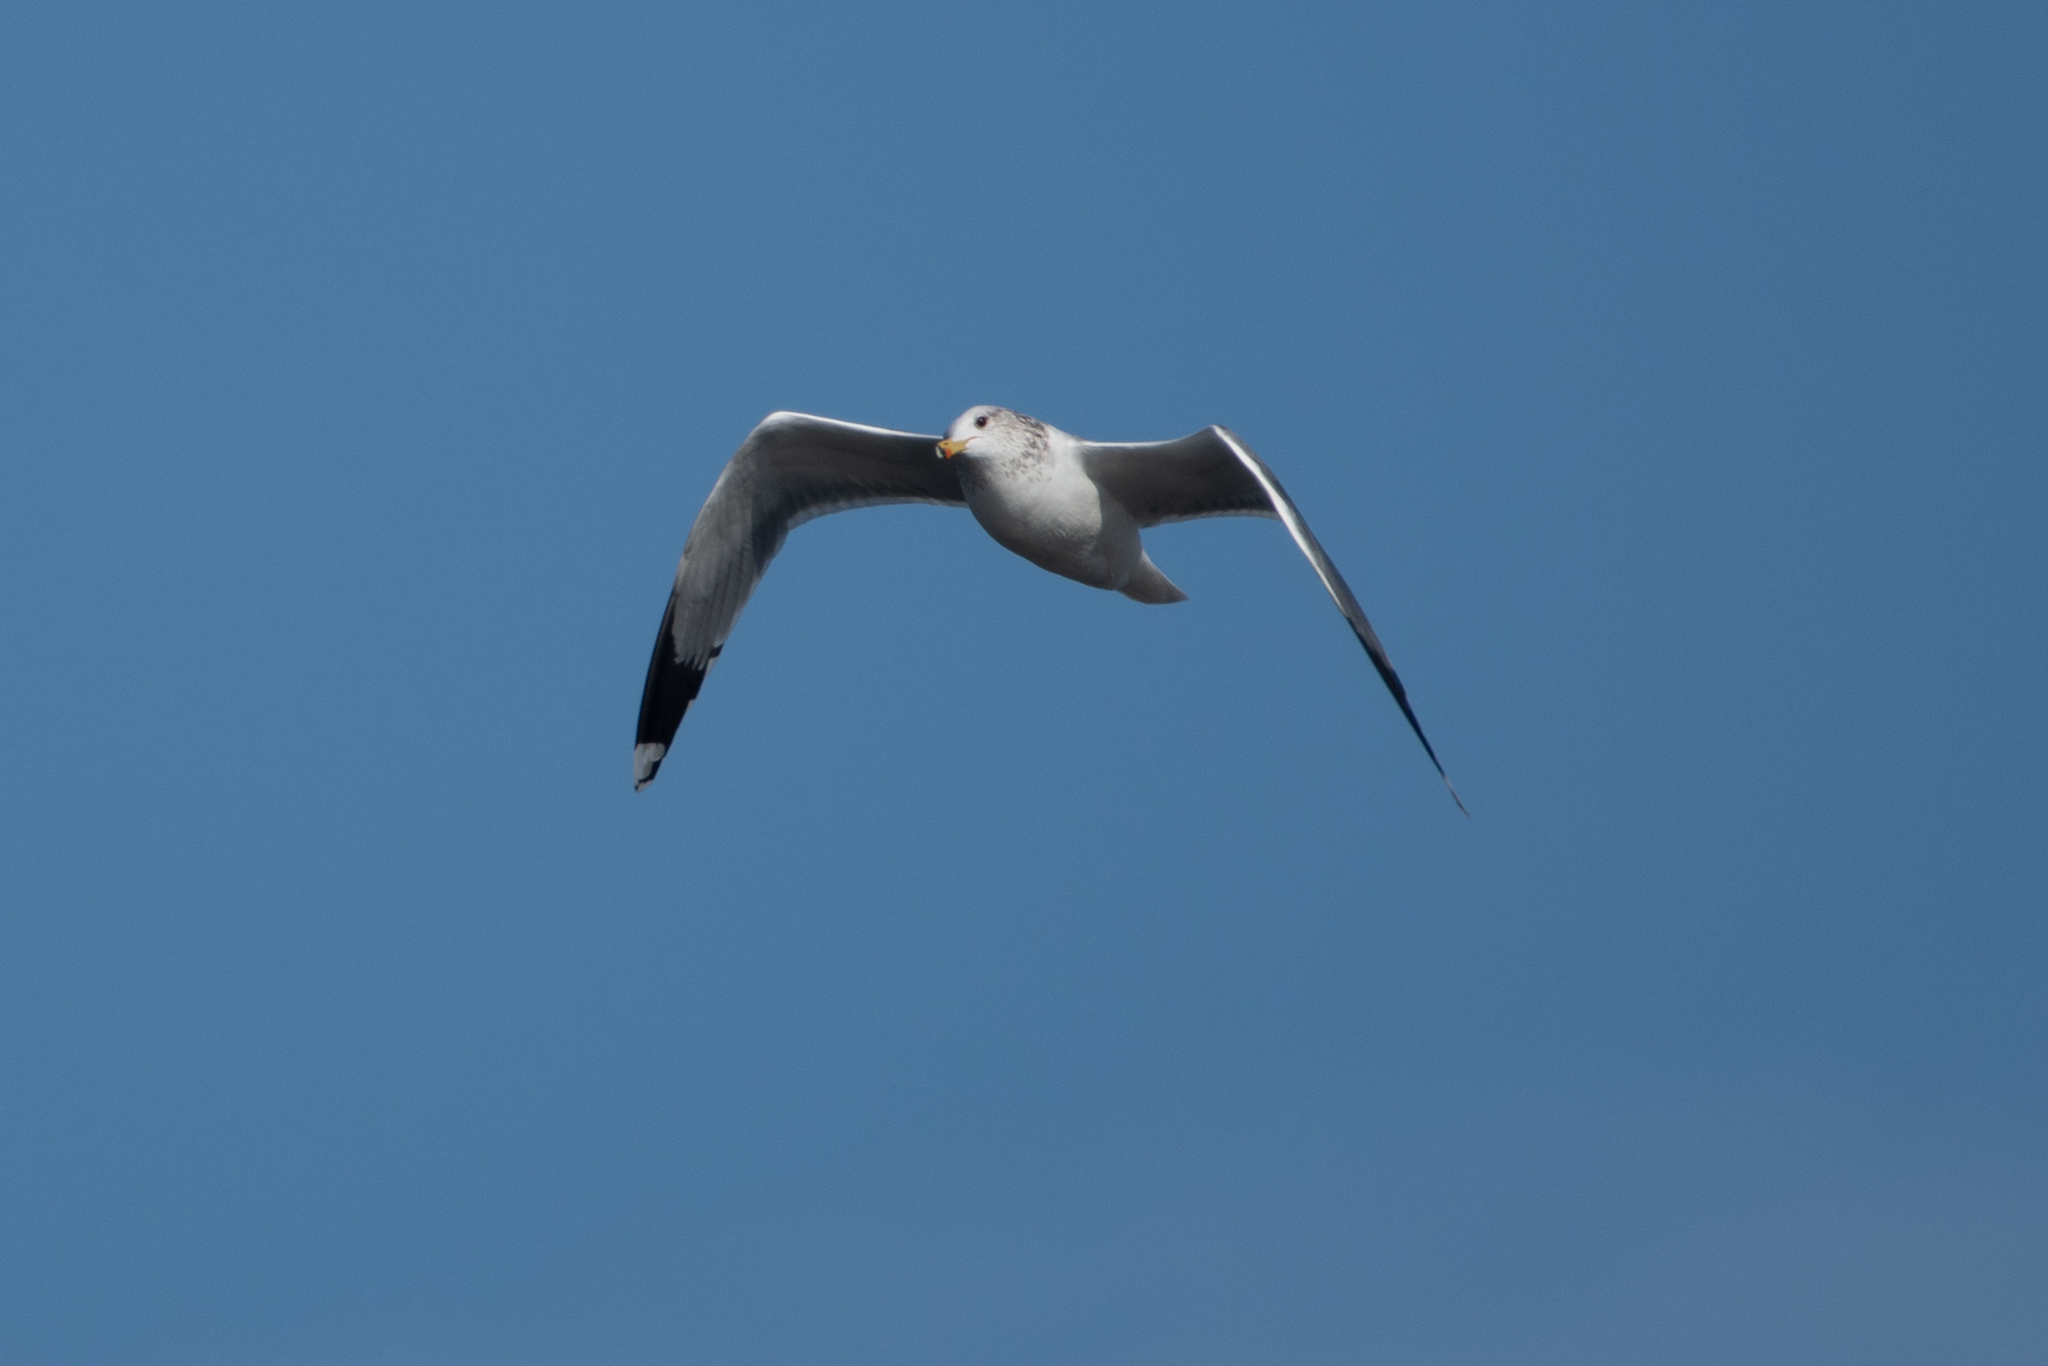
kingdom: Animalia
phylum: Chordata
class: Aves
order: Charadriiformes
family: Laridae
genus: Larus
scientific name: Larus californicus
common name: California gull
